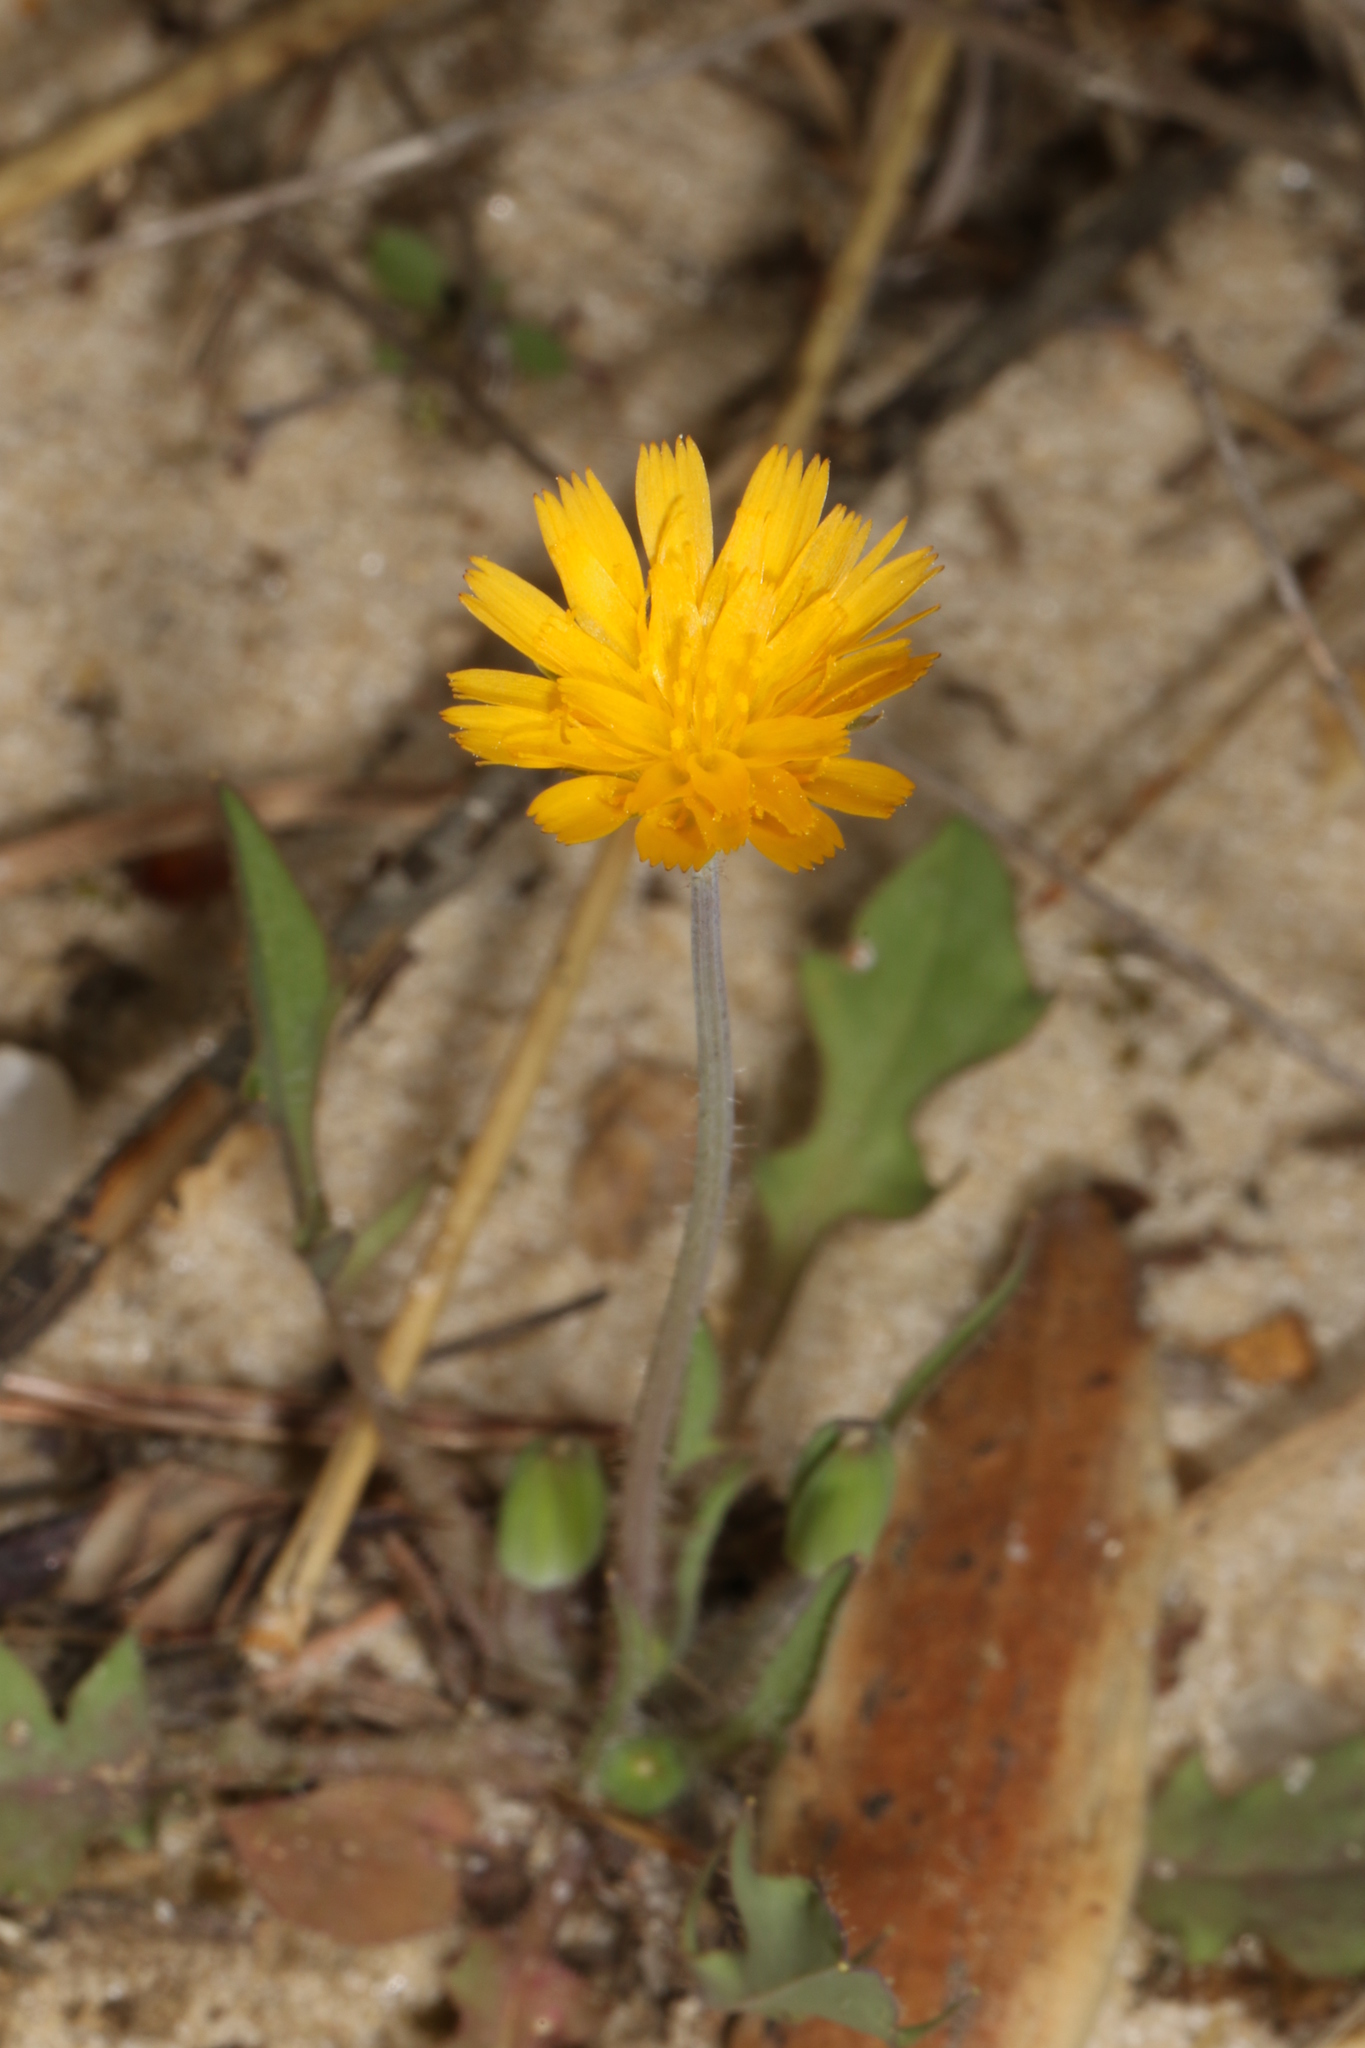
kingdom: Plantae
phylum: Tracheophyta
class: Magnoliopsida
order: Asterales
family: Asteraceae
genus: Krigia
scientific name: Krigia virginica
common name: Virginia dwarf-dandelion
